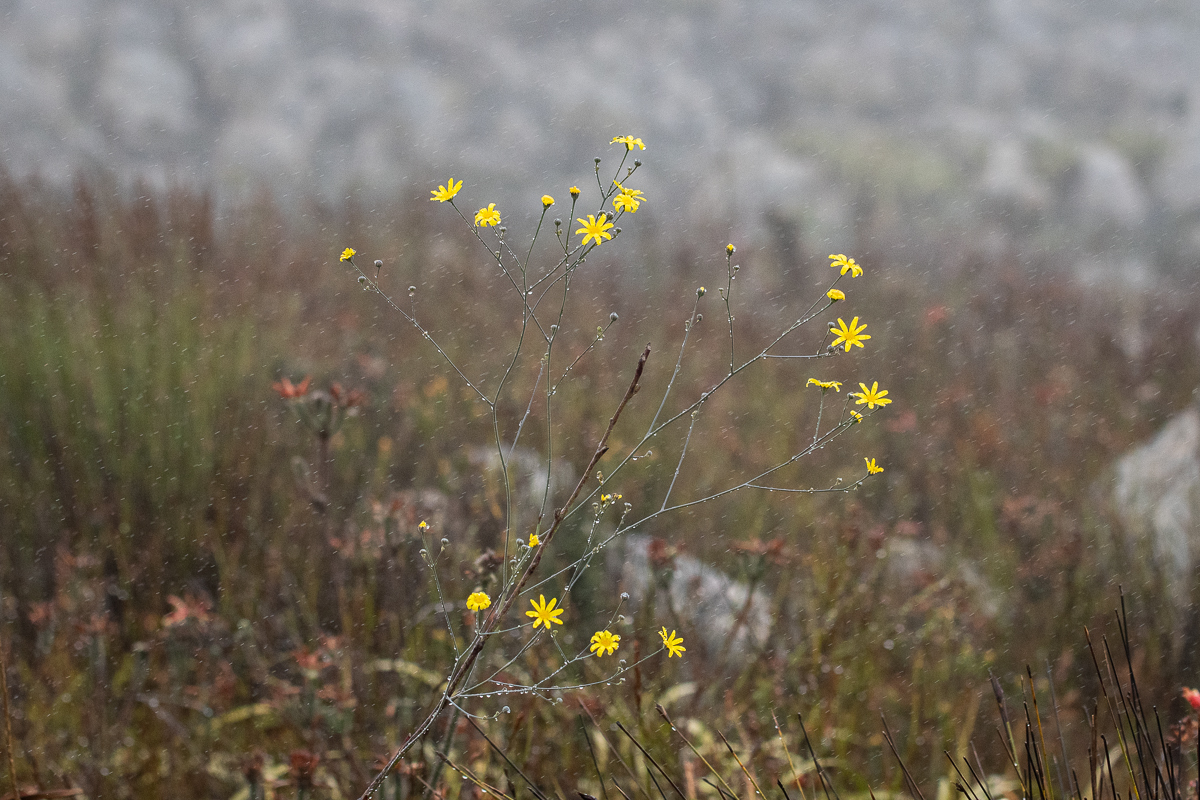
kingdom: Plantae
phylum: Tracheophyta
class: Magnoliopsida
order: Asterales
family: Asteraceae
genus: Othonna
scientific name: Othonna quinquedentata
